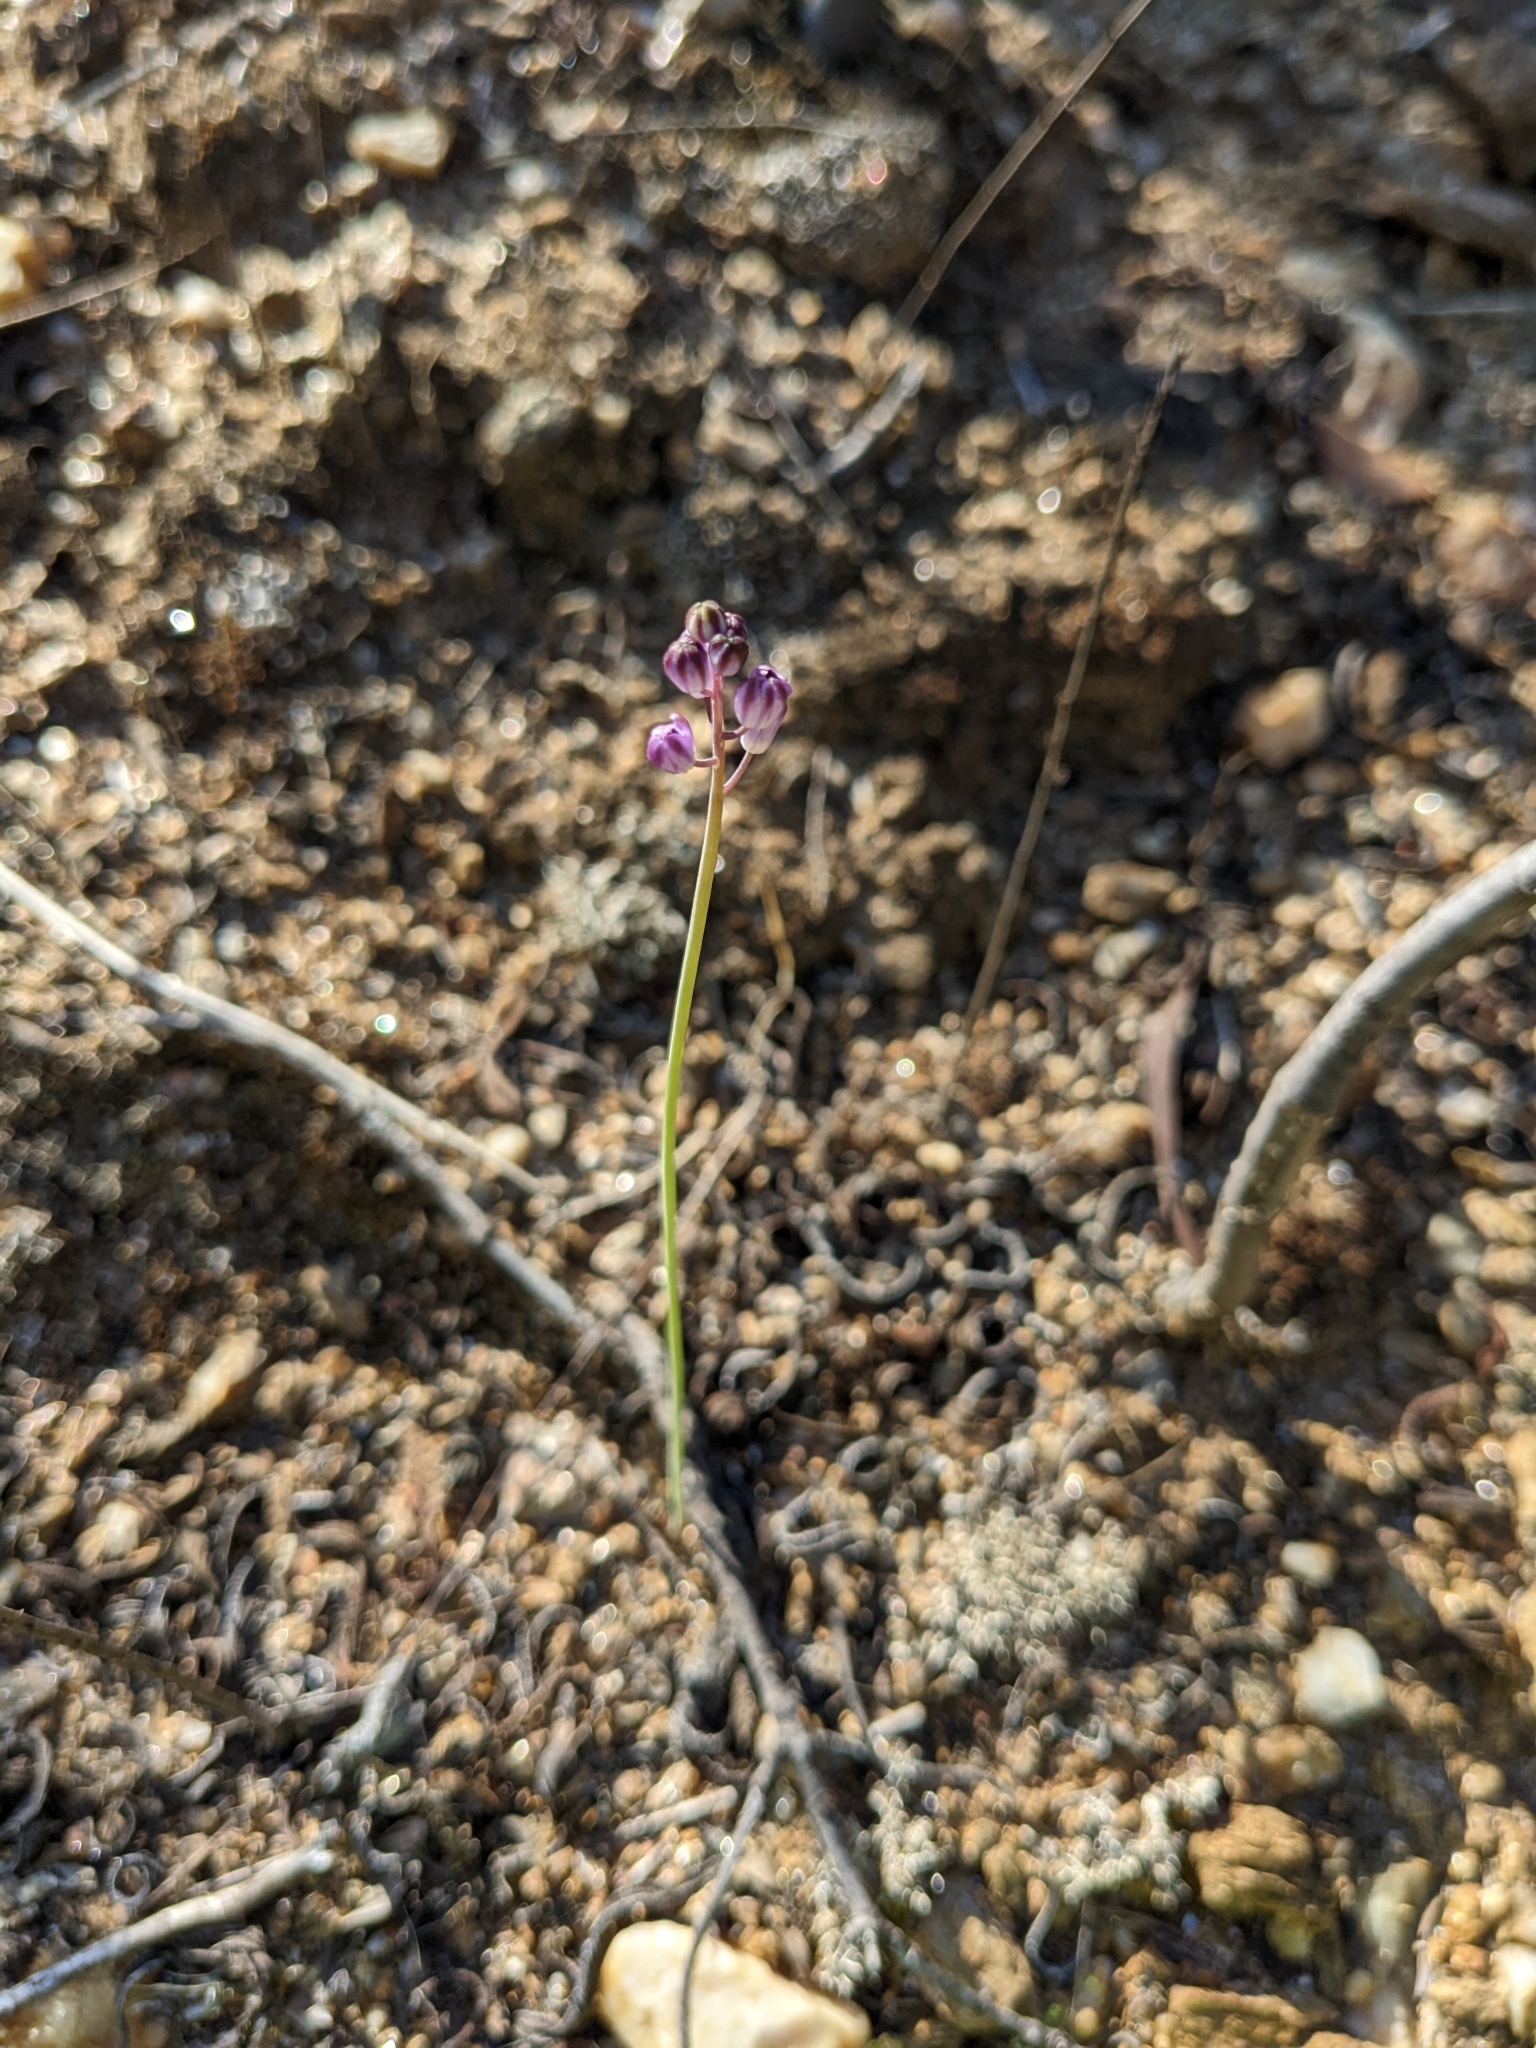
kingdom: Plantae
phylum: Tracheophyta
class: Liliopsida
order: Asparagales
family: Asparagaceae
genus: Prospero
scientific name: Prospero autumnale
